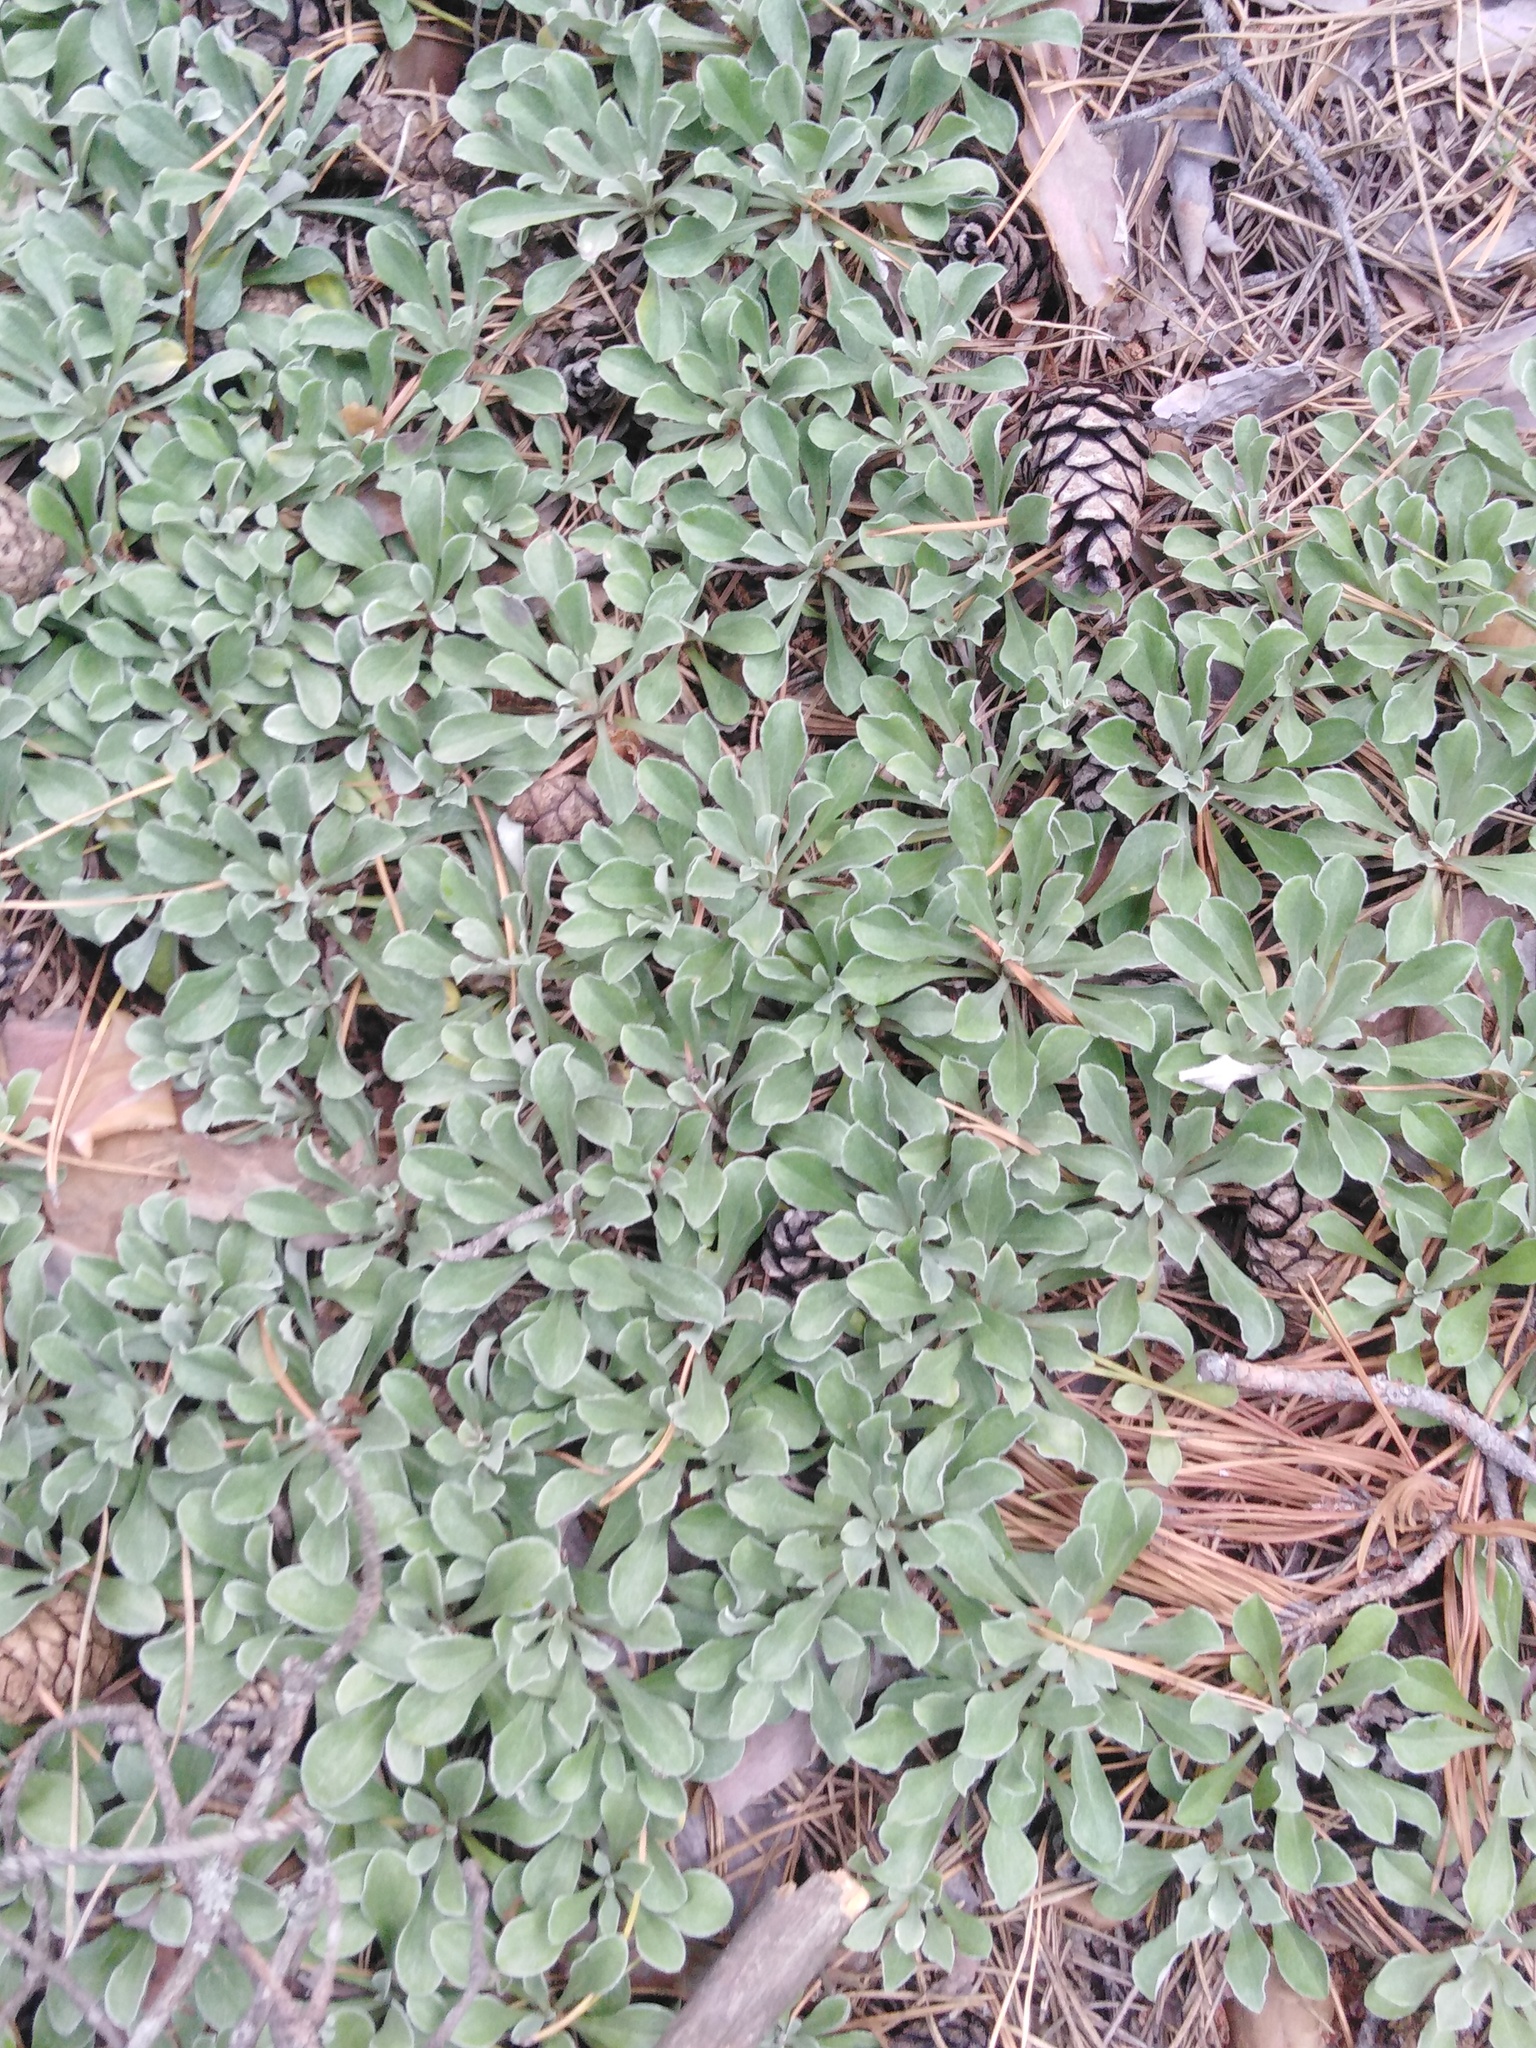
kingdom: Plantae
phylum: Tracheophyta
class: Magnoliopsida
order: Asterales
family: Asteraceae
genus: Antennaria
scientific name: Antennaria dioica
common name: Mountain everlasting
